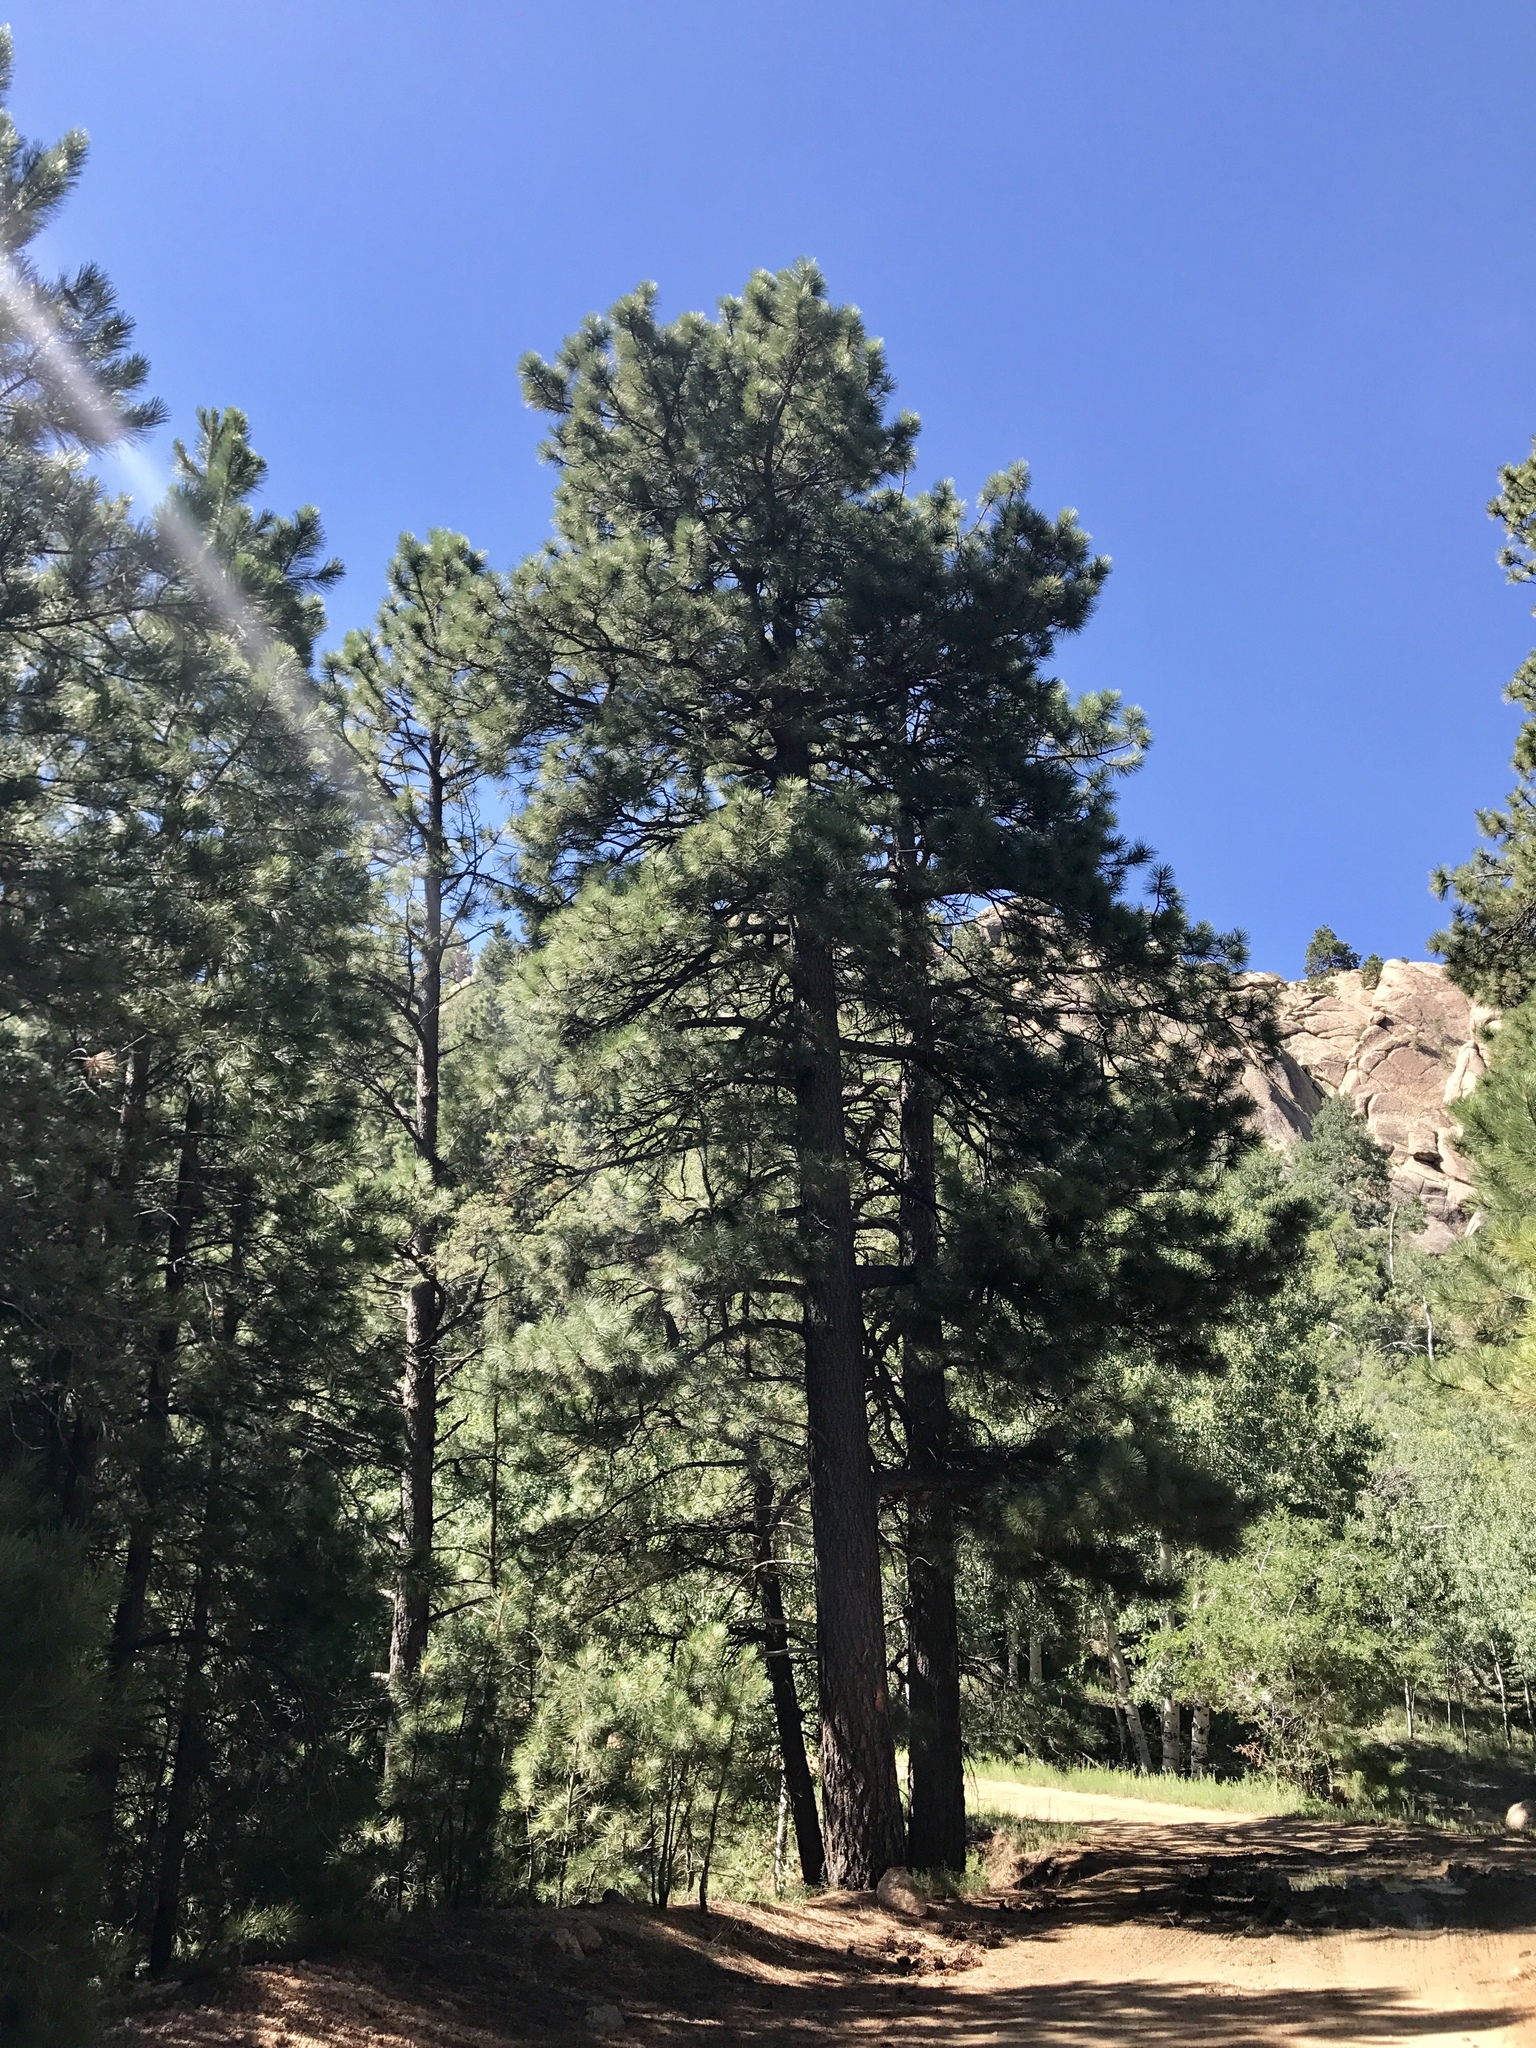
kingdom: Plantae
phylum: Tracheophyta
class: Pinopsida
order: Pinales
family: Pinaceae
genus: Pinus
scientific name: Pinus ponderosa
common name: Western yellow-pine
